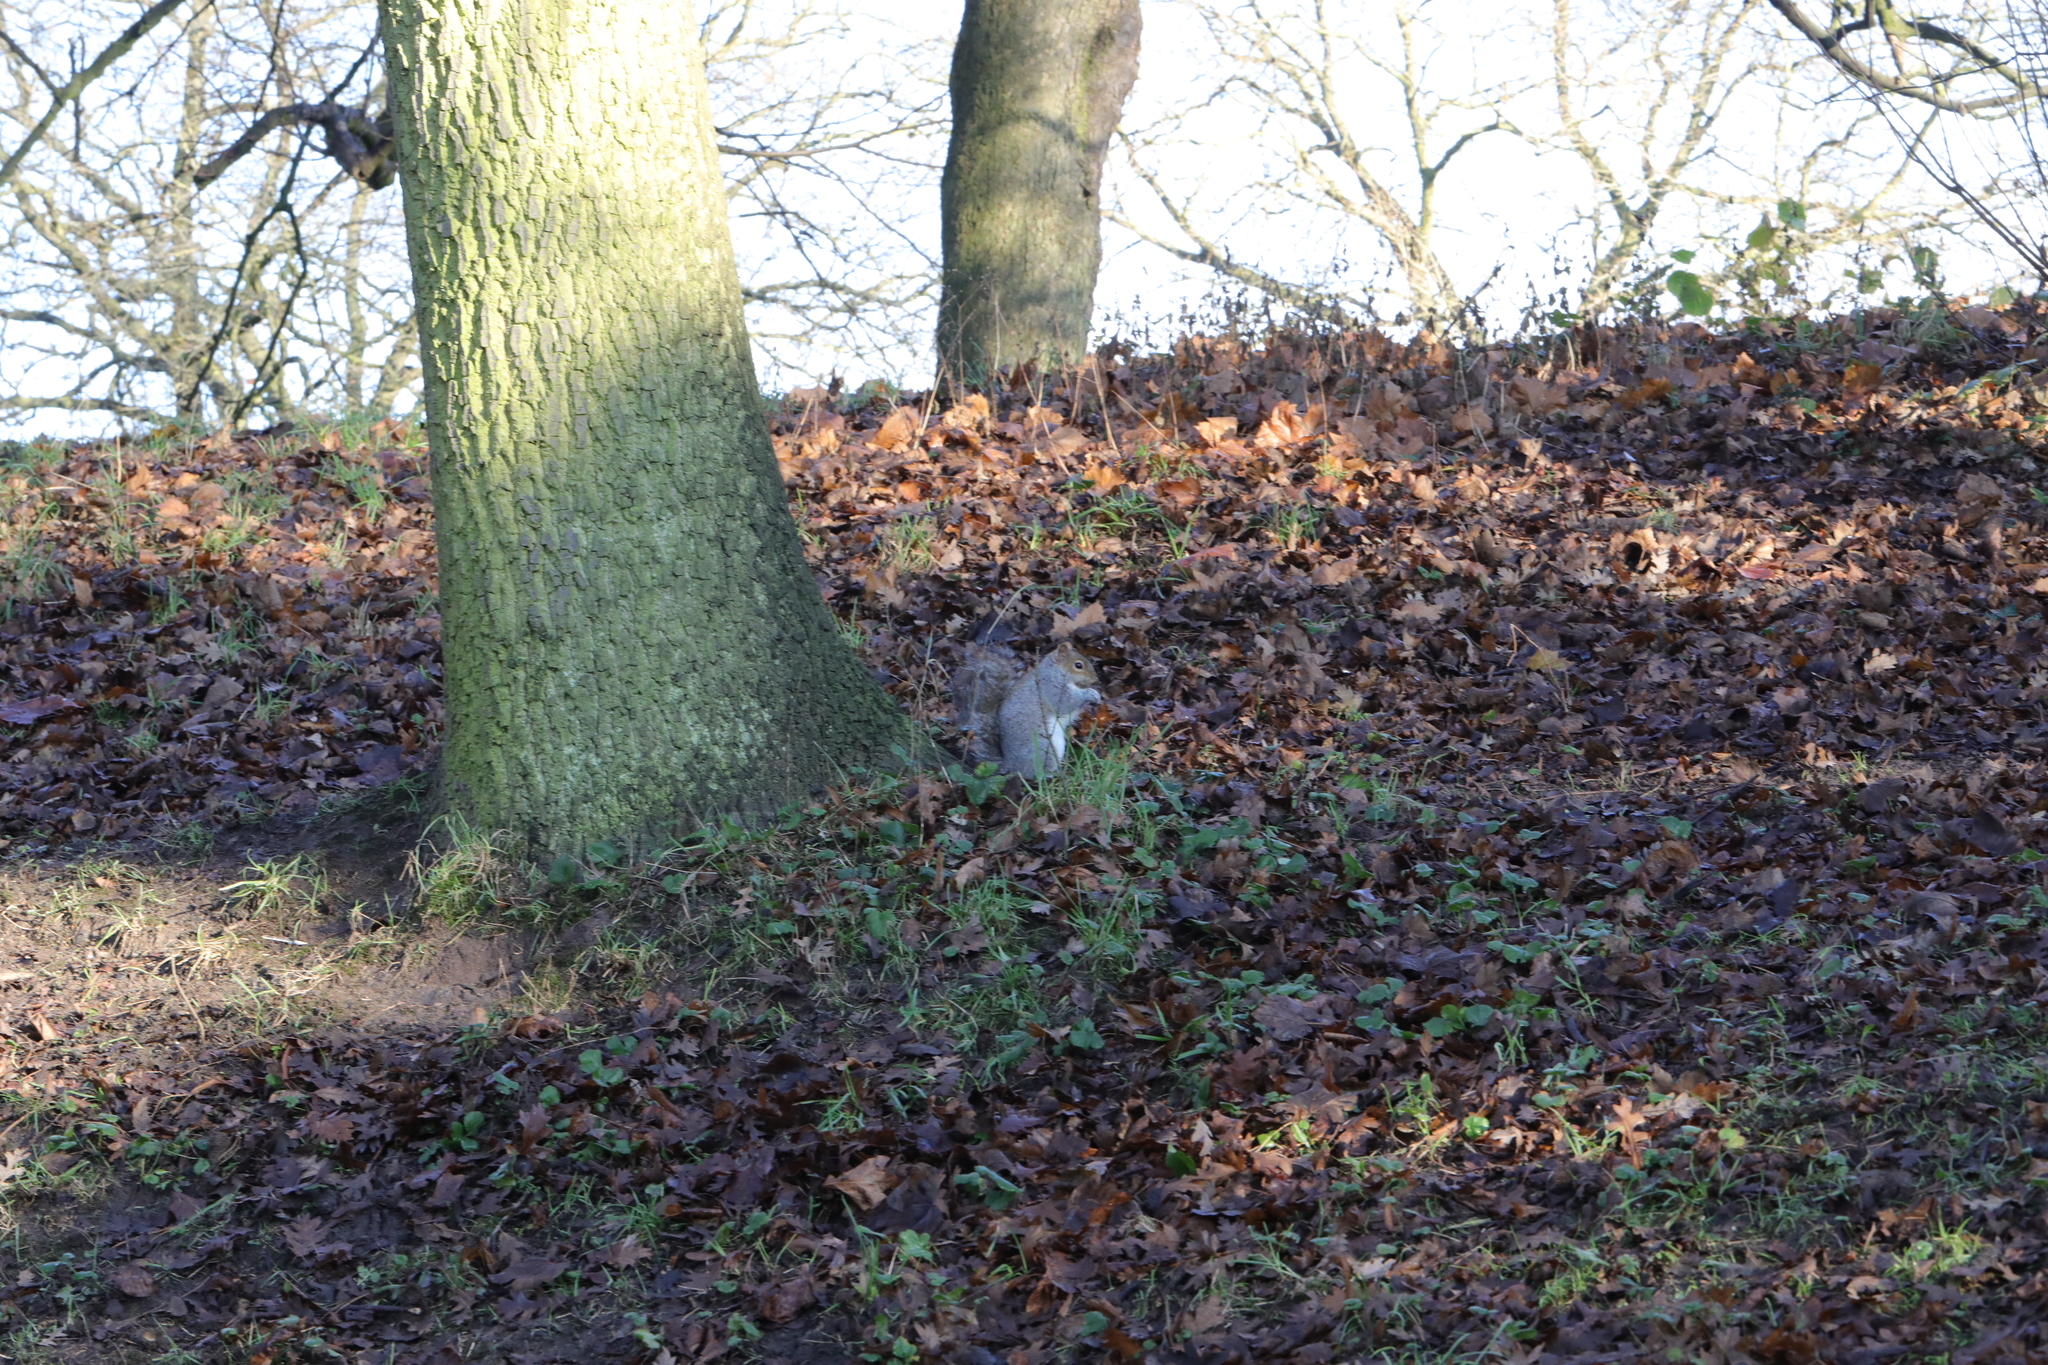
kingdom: Animalia
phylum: Chordata
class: Mammalia
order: Rodentia
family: Sciuridae
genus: Sciurus
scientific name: Sciurus carolinensis
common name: Eastern gray squirrel
